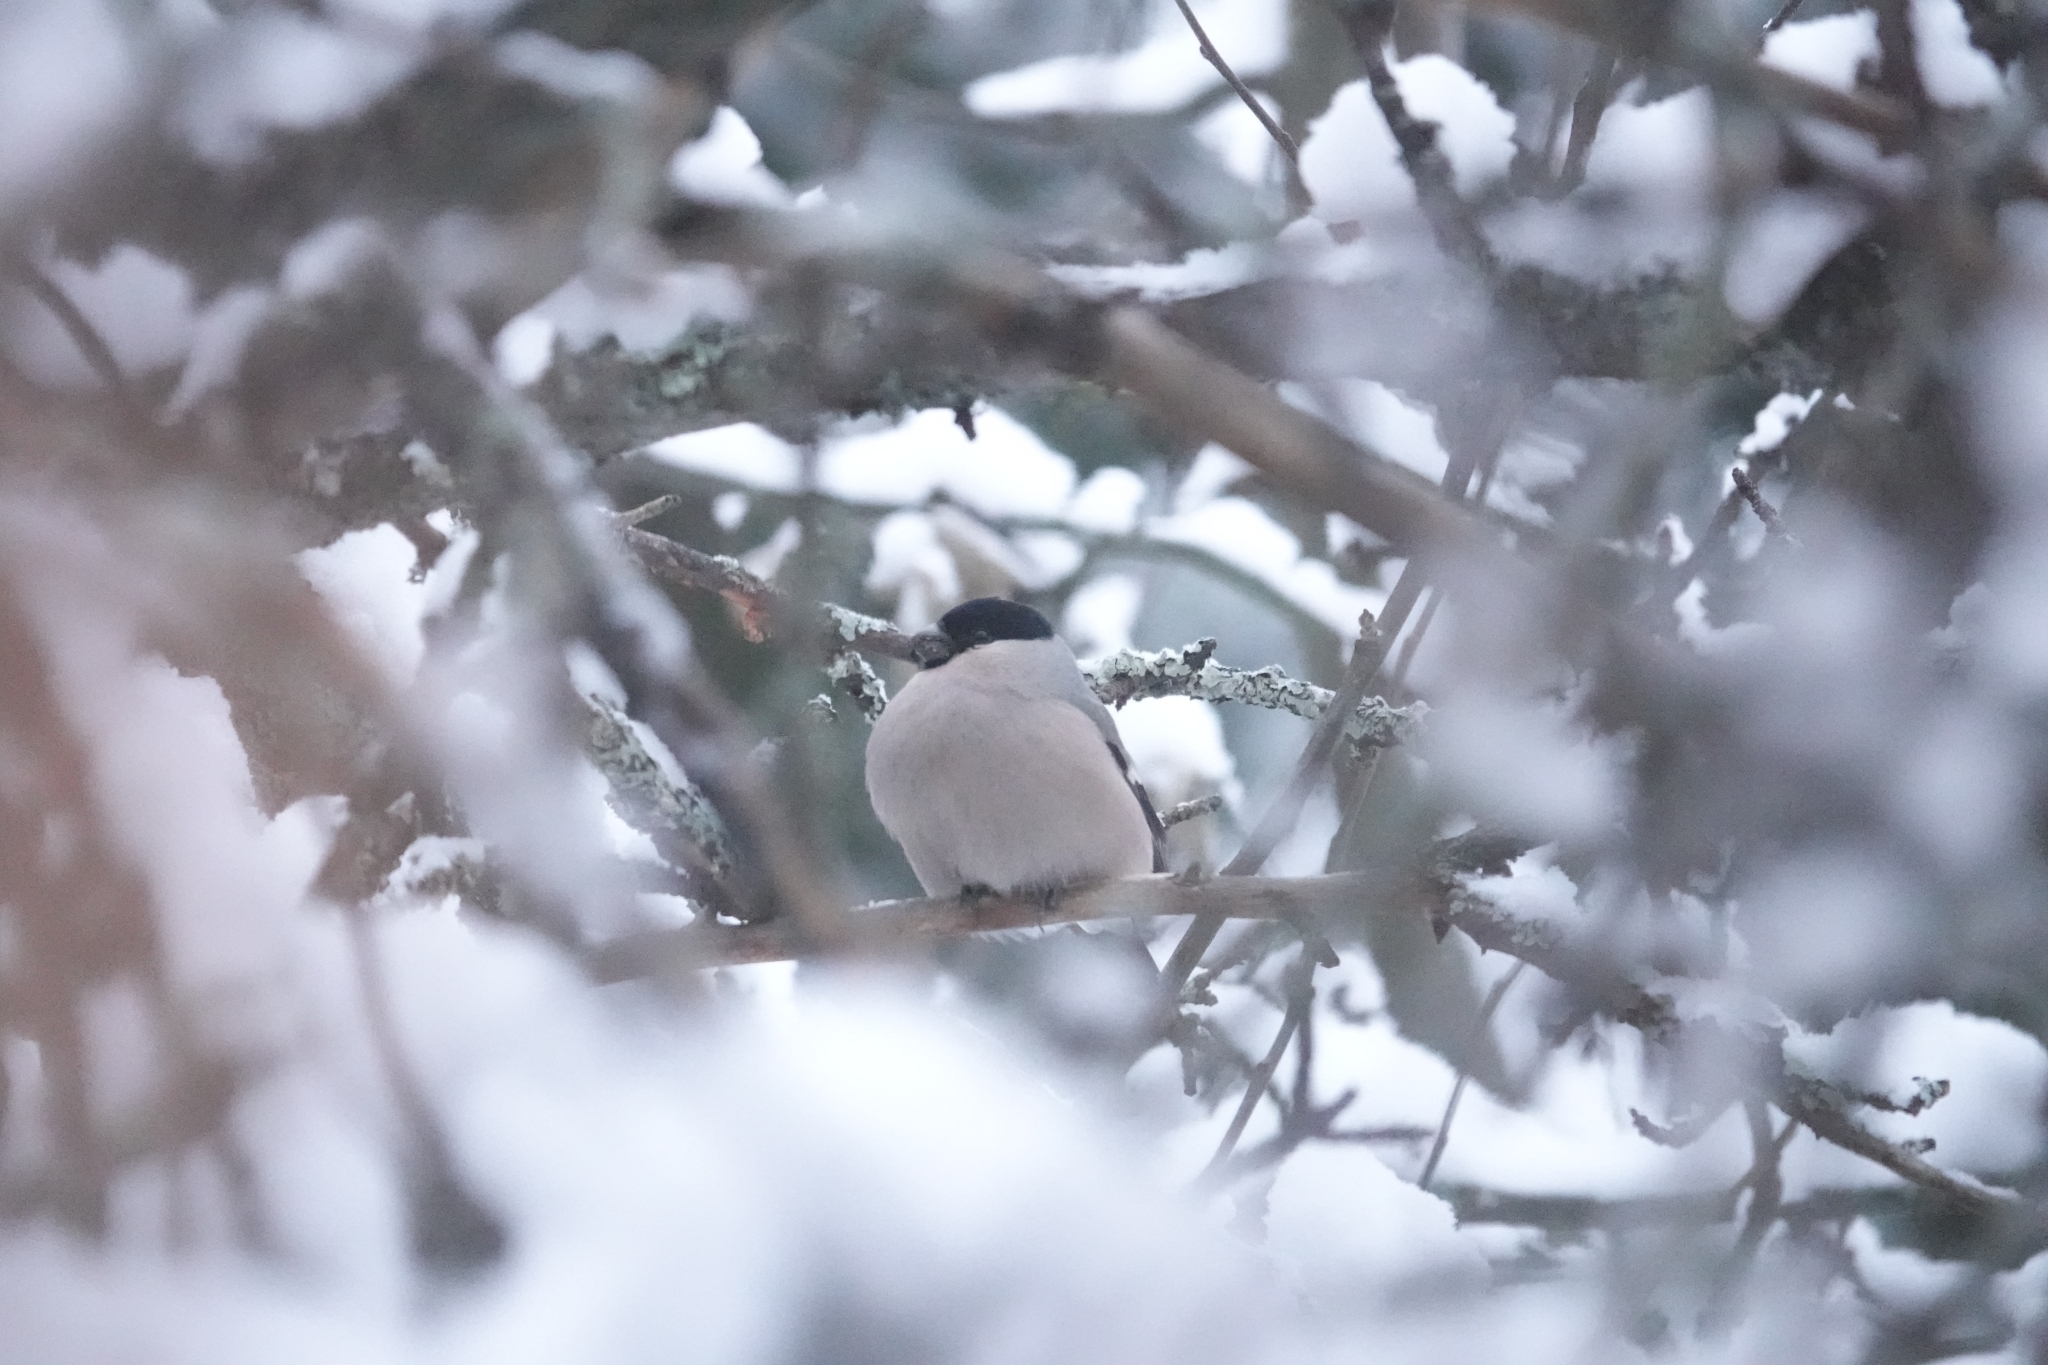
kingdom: Animalia
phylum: Chordata
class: Aves
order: Passeriformes
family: Fringillidae
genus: Pyrrhula
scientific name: Pyrrhula pyrrhula
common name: Eurasian bullfinch
